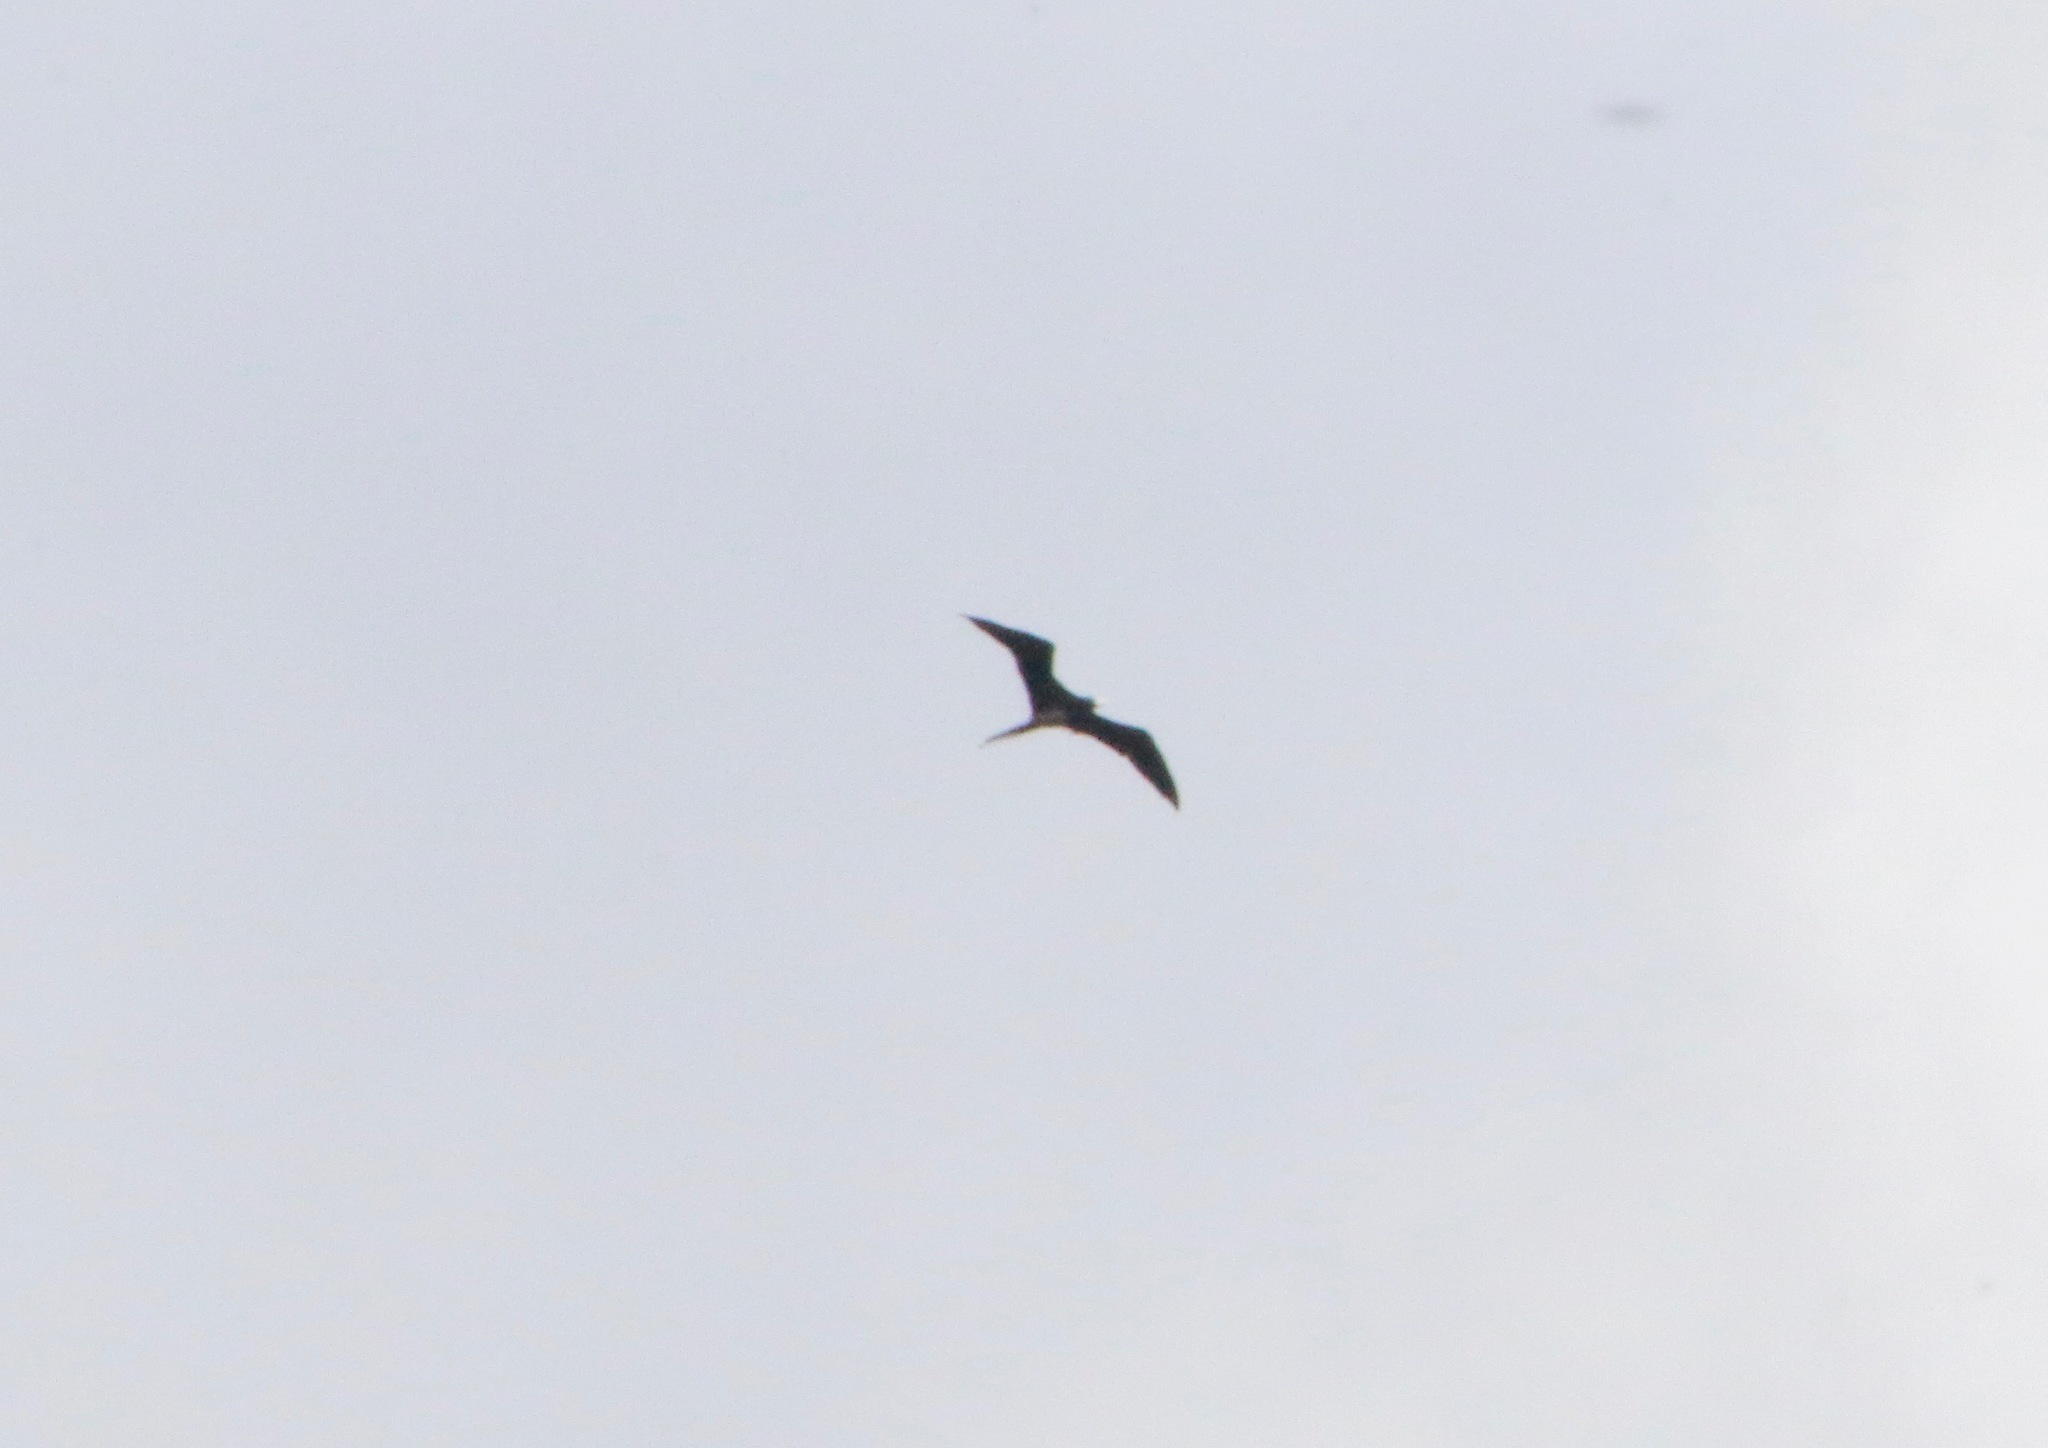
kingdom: Animalia
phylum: Chordata
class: Aves
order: Suliformes
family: Fregatidae
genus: Fregata
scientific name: Fregata minor
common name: Great frigatebird
